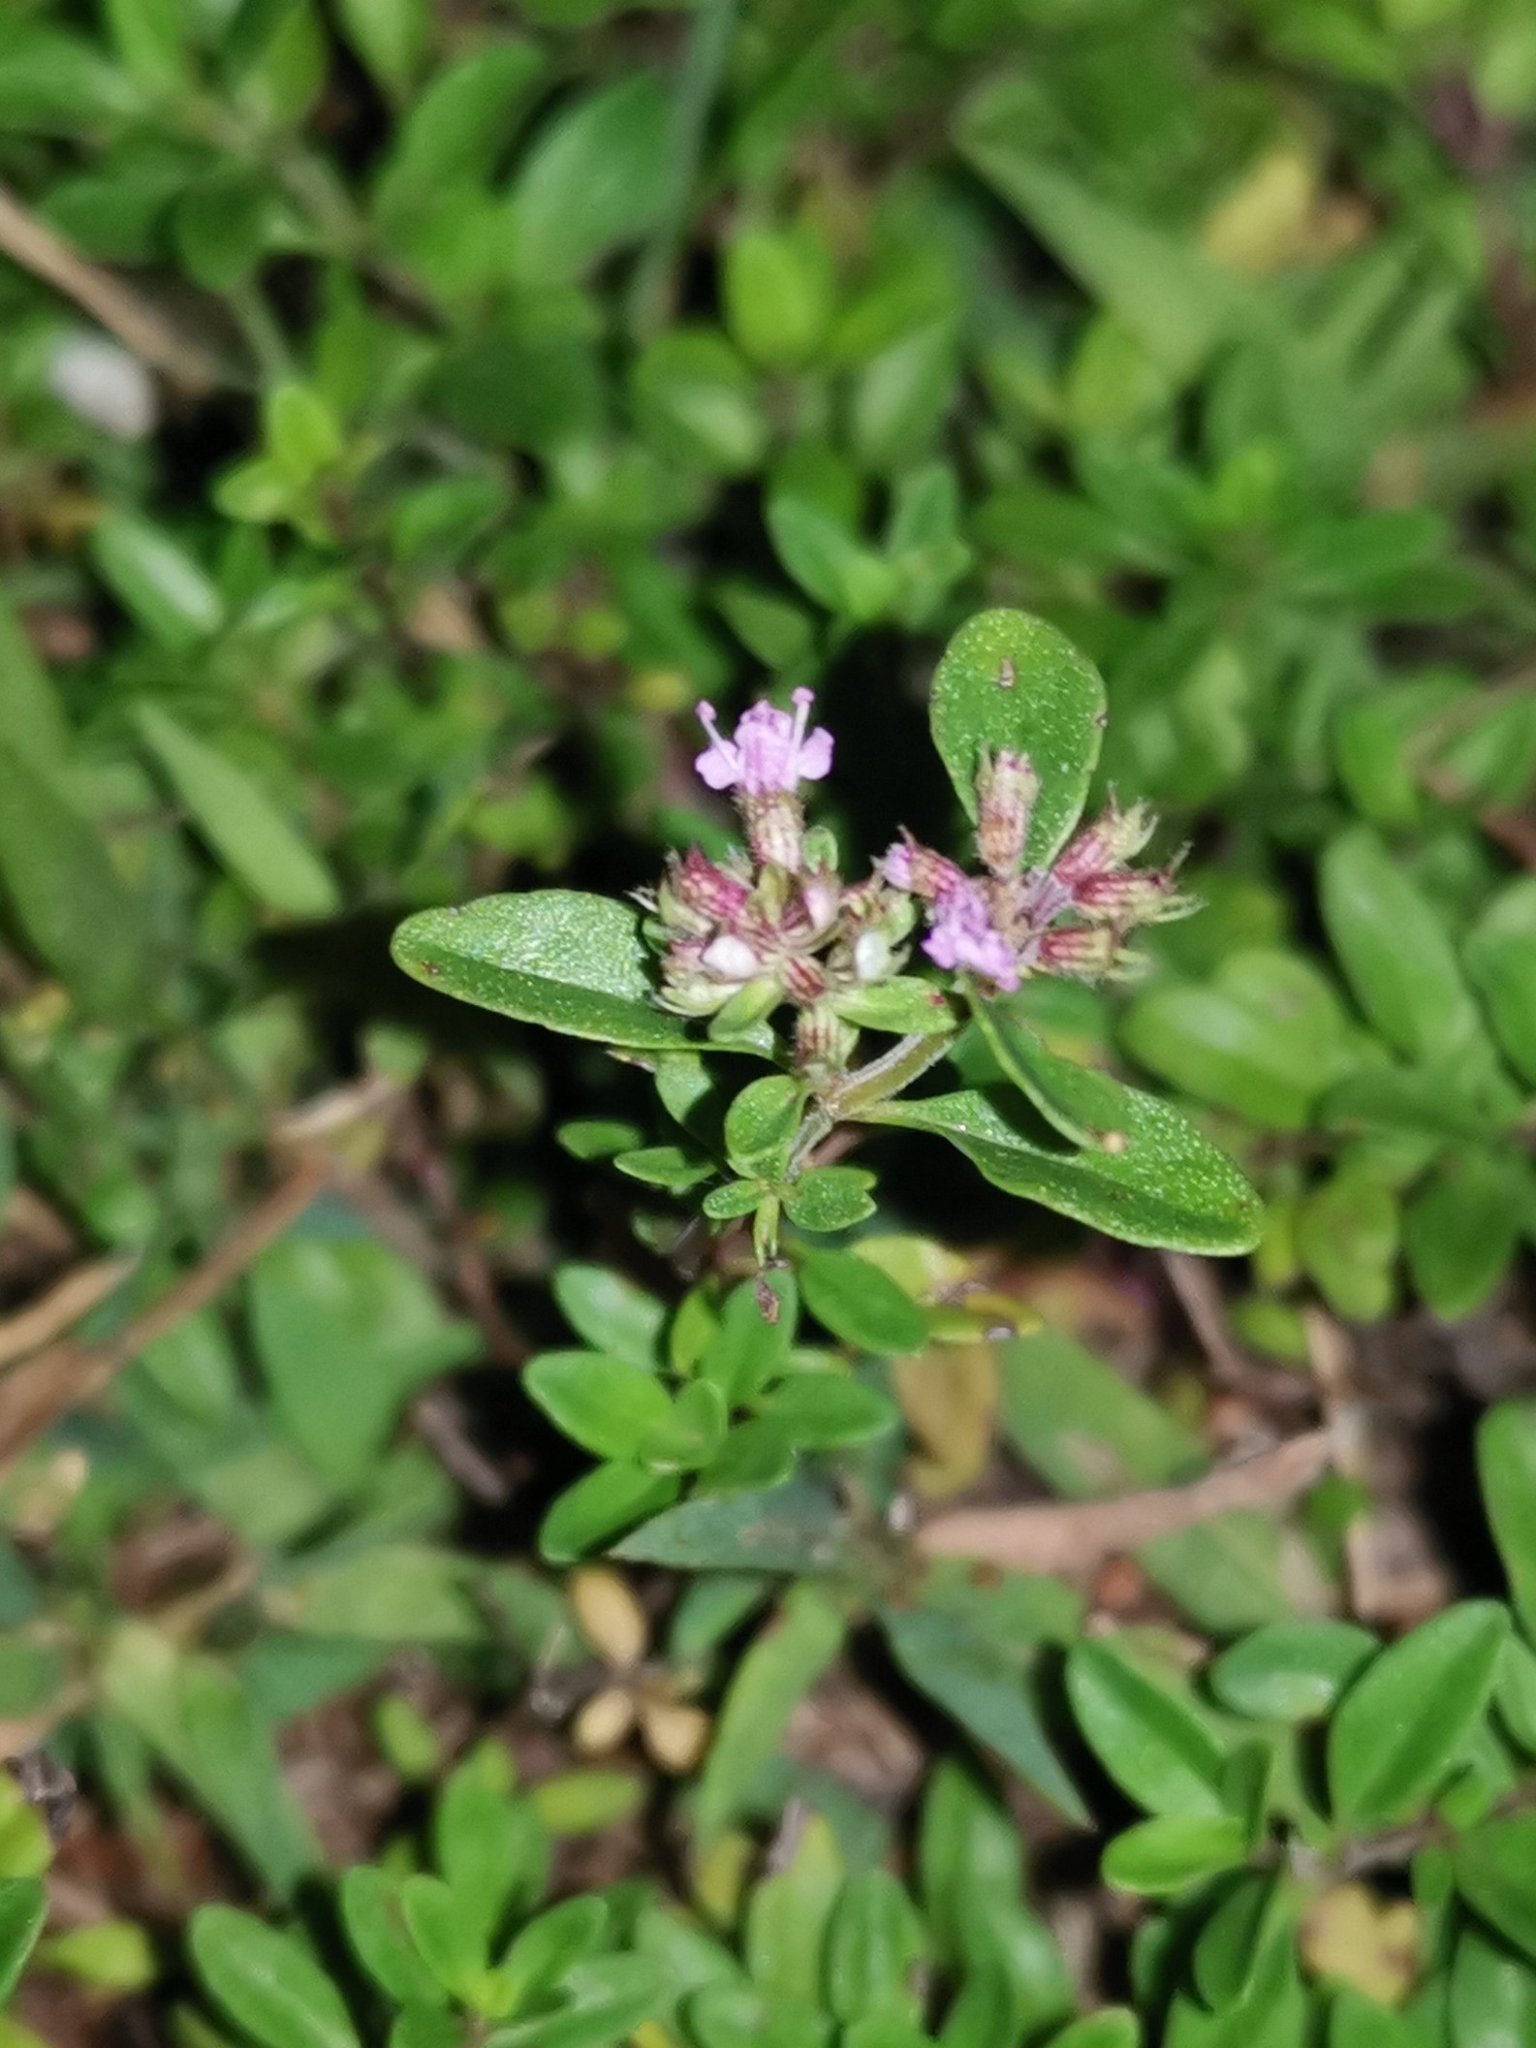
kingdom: Plantae
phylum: Tracheophyta
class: Magnoliopsida
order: Lamiales
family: Lamiaceae
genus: Thymus
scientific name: Thymus pulegioides
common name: Large thyme
